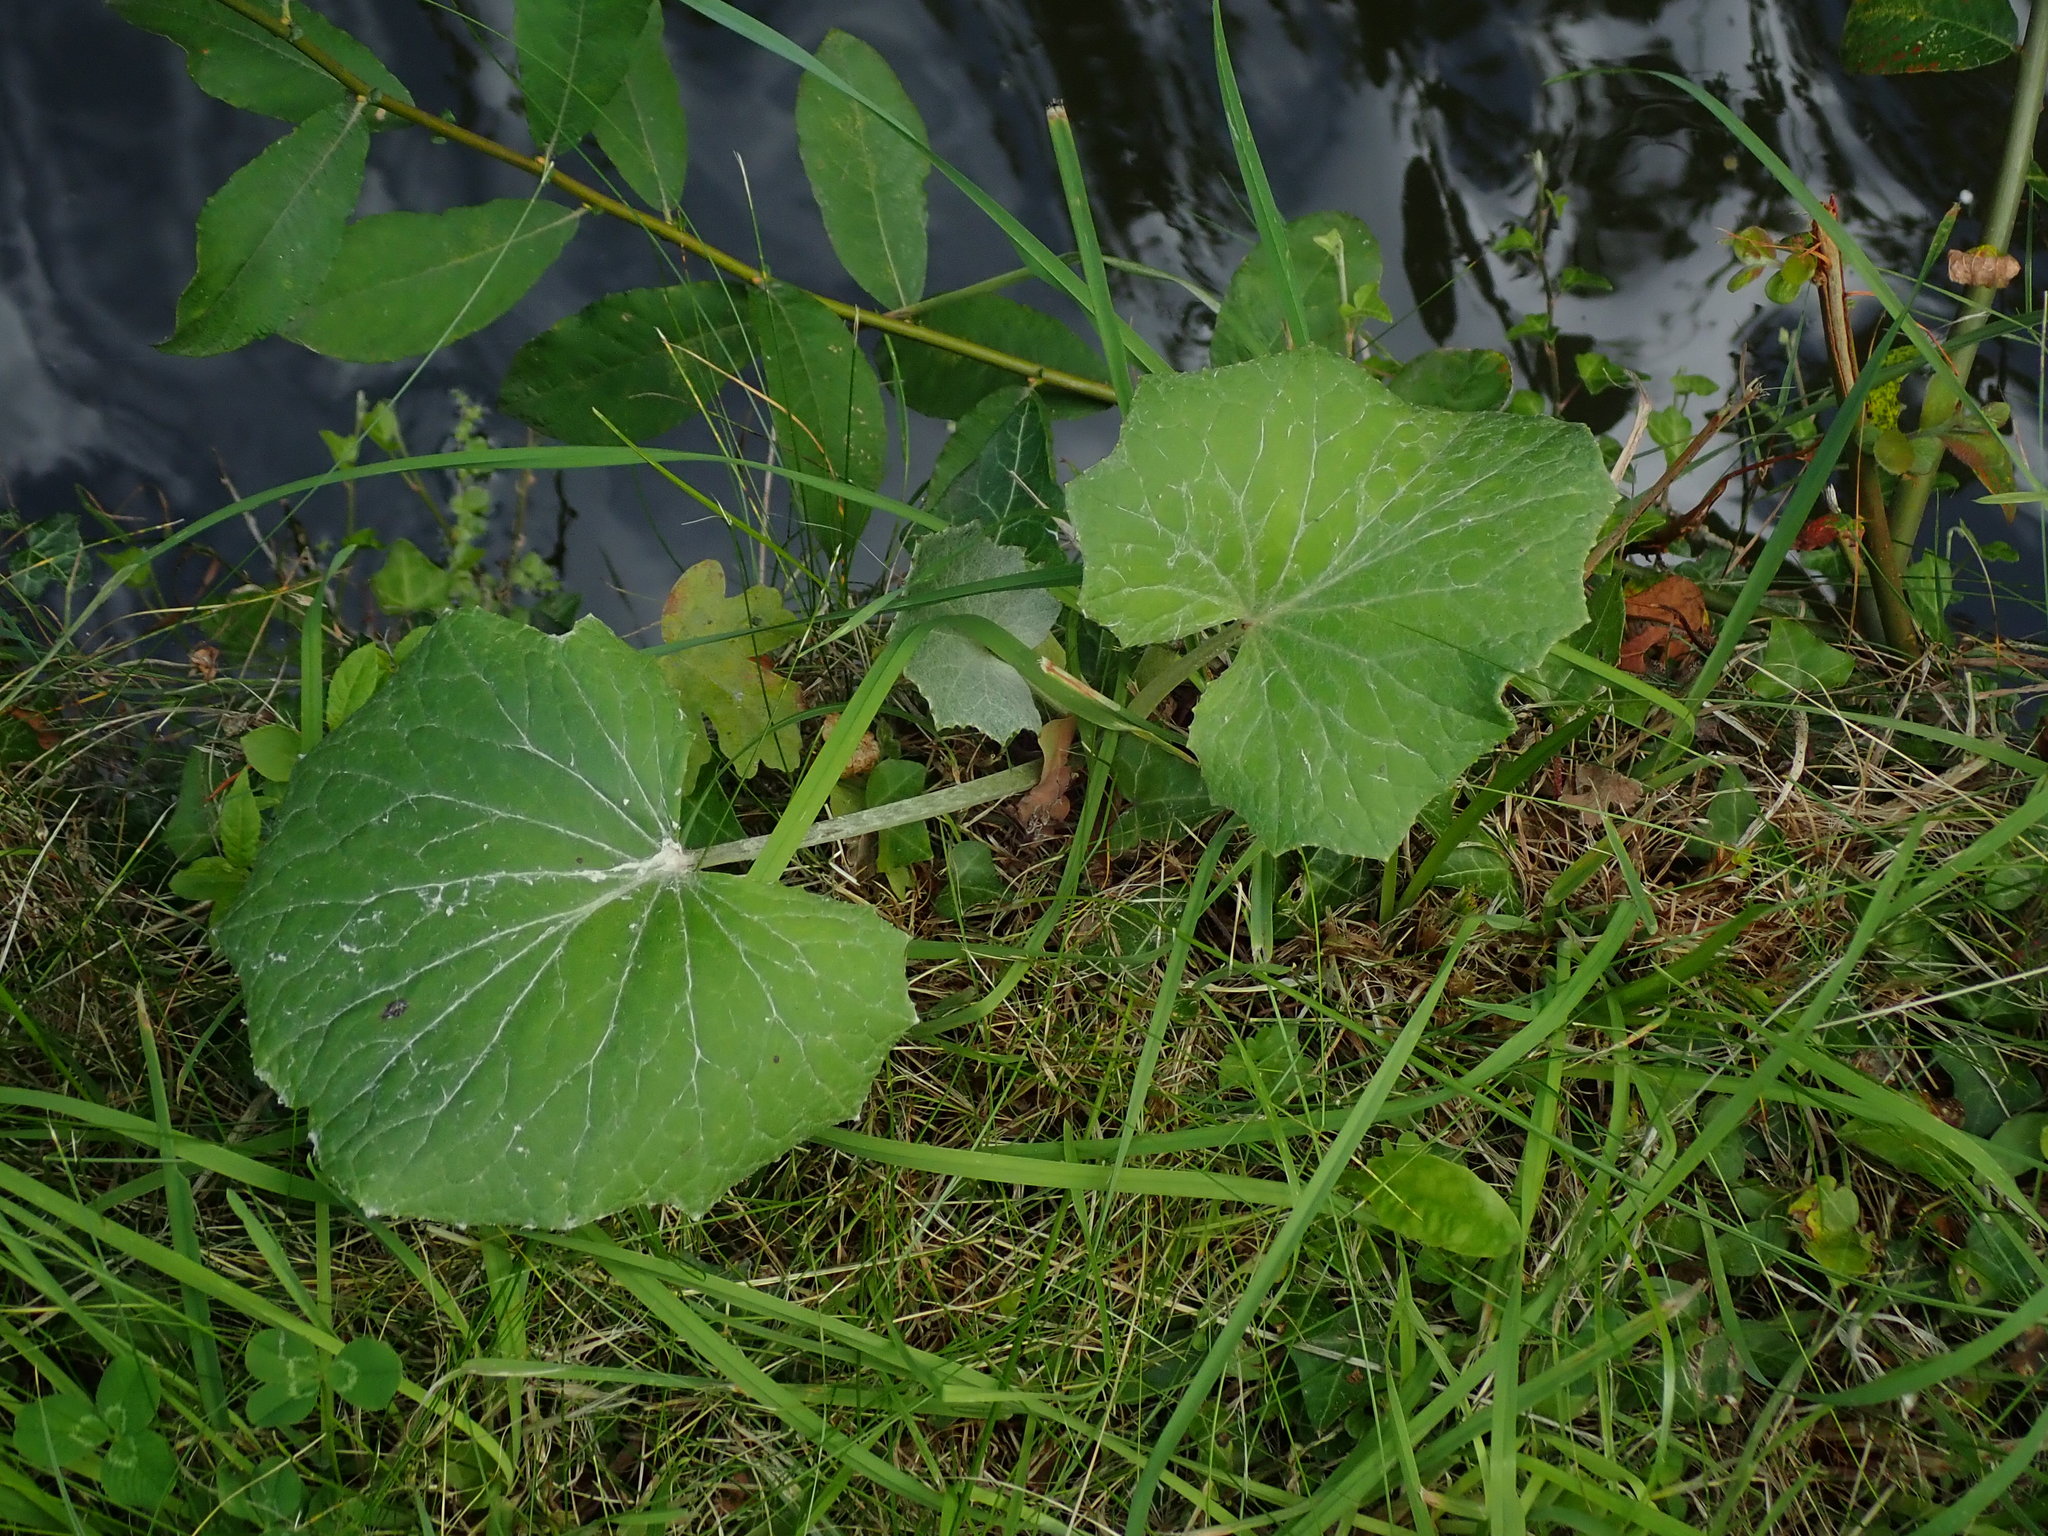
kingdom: Plantae
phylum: Tracheophyta
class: Magnoliopsida
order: Asterales
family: Asteraceae
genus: Tussilago
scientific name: Tussilago farfara
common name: Coltsfoot
